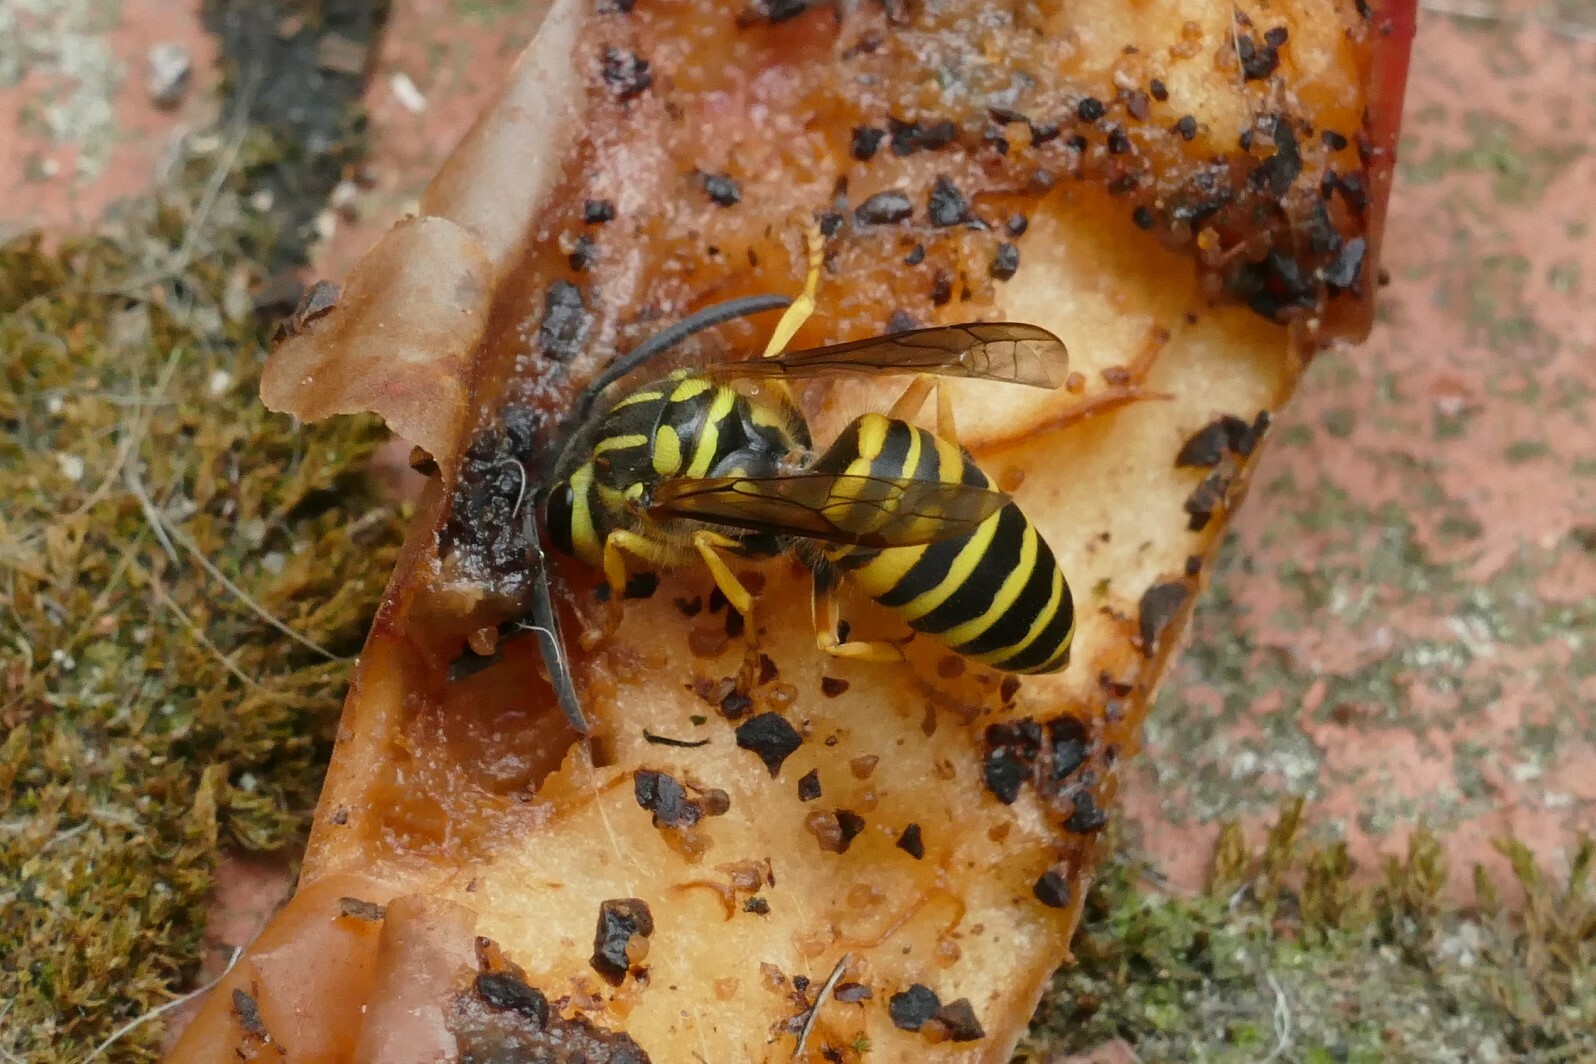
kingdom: Animalia
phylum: Arthropoda
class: Insecta
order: Hymenoptera
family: Vespidae
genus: Vespula
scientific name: Vespula squamosa
